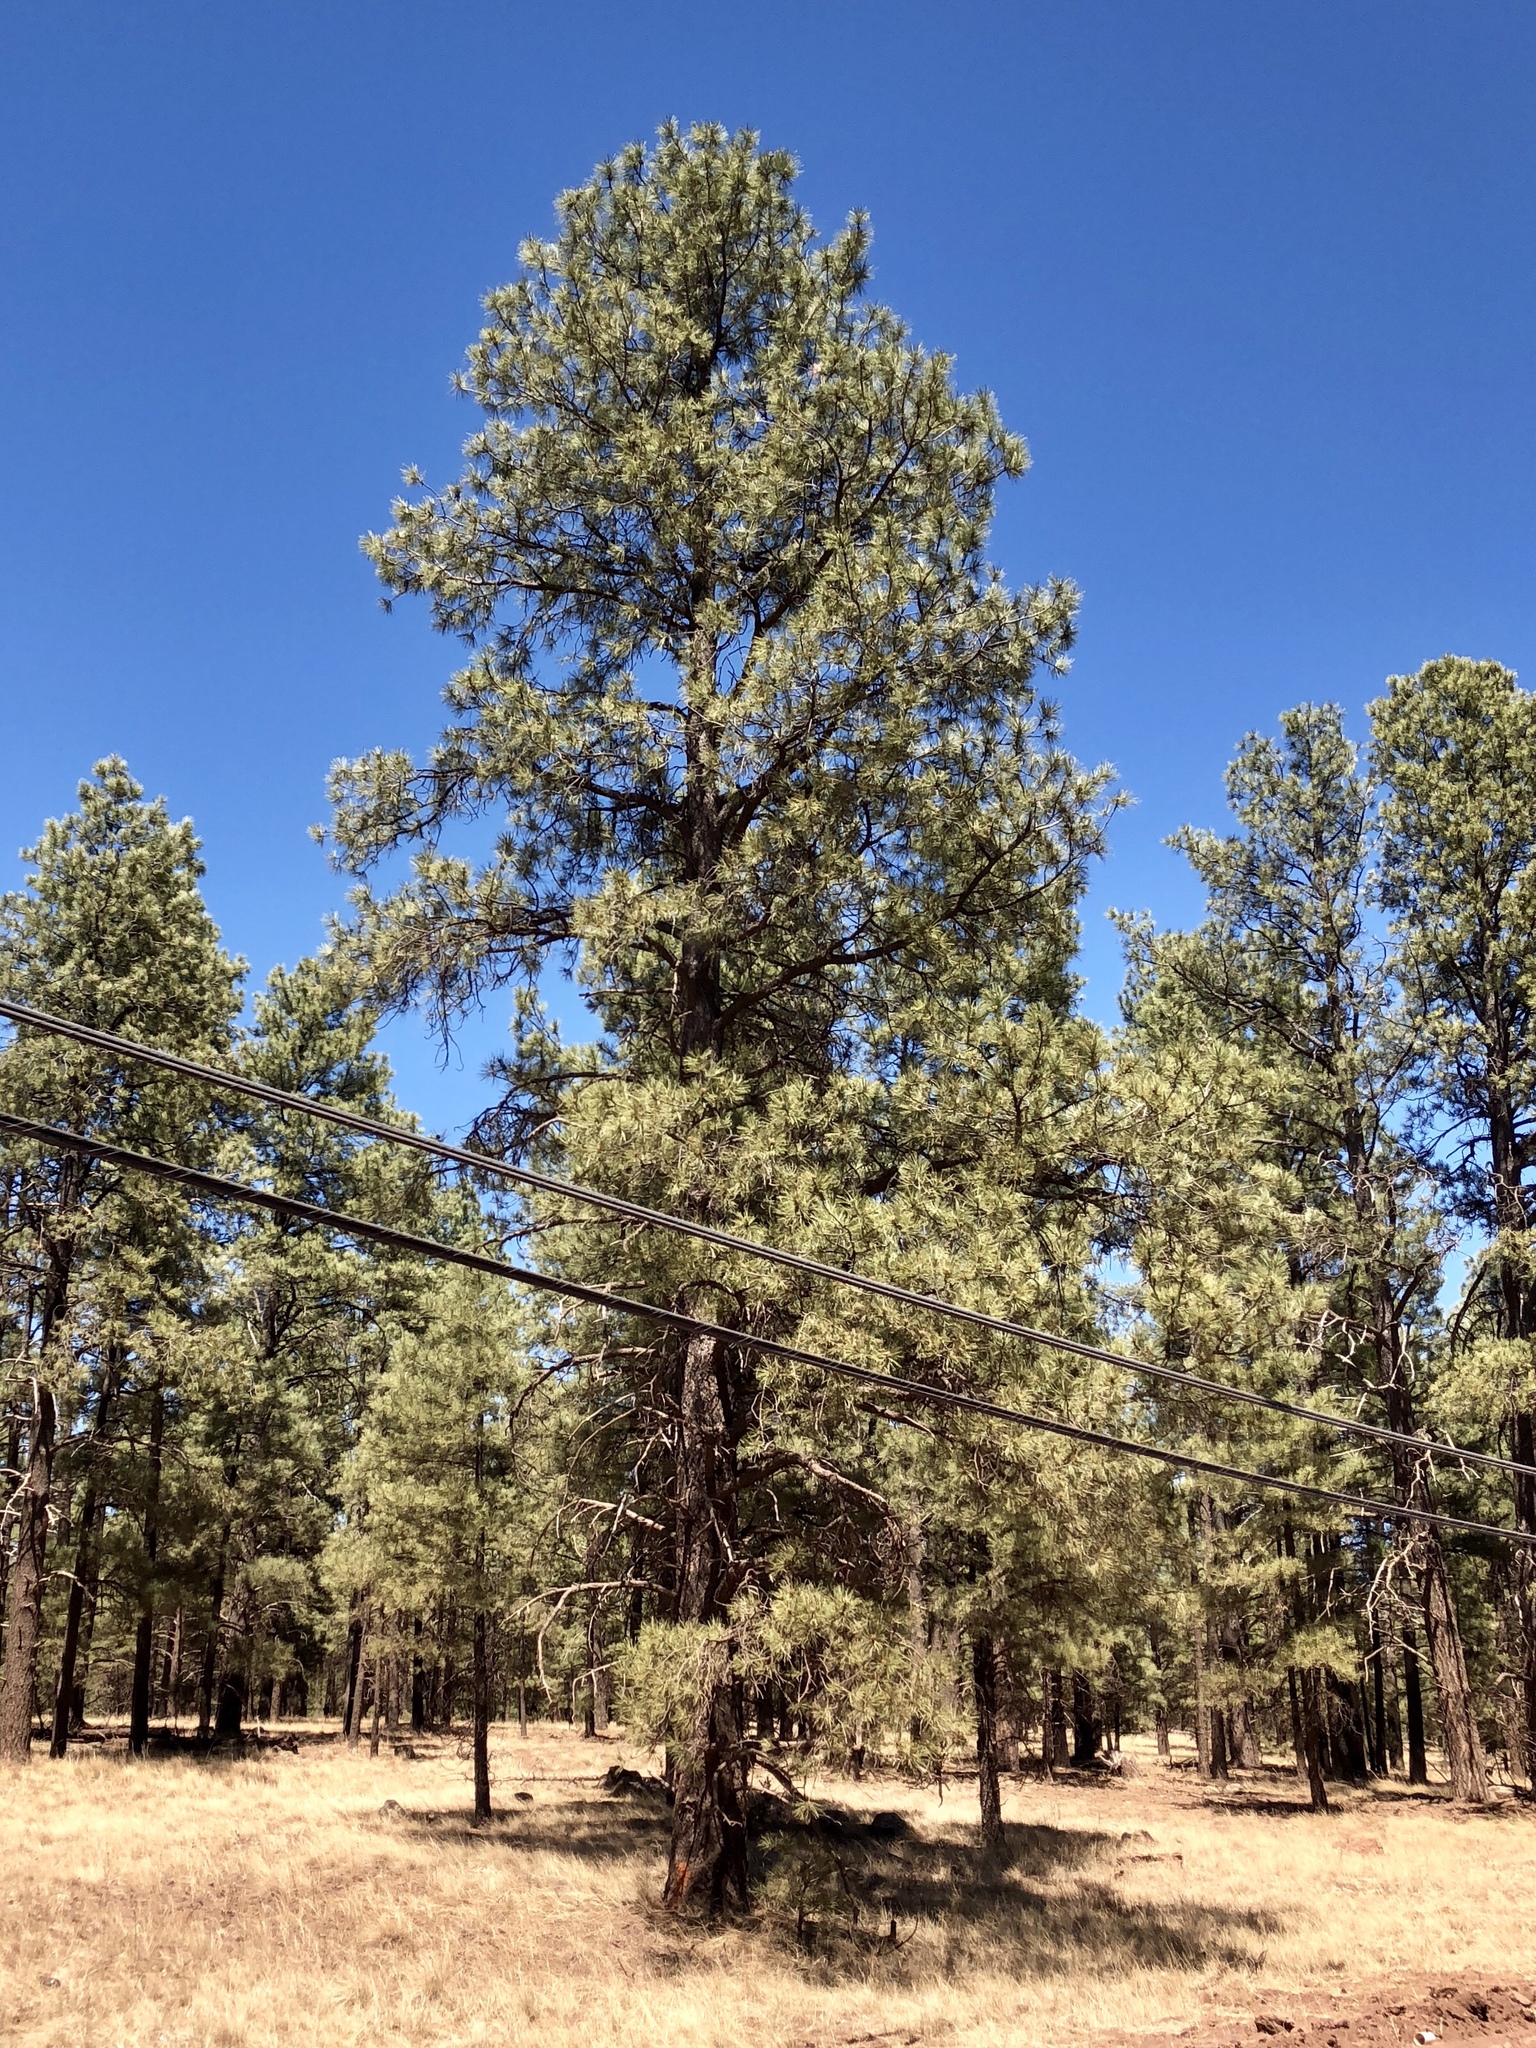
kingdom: Plantae
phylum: Tracheophyta
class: Pinopsida
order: Pinales
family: Pinaceae
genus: Pinus
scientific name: Pinus ponderosa
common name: Western yellow-pine
